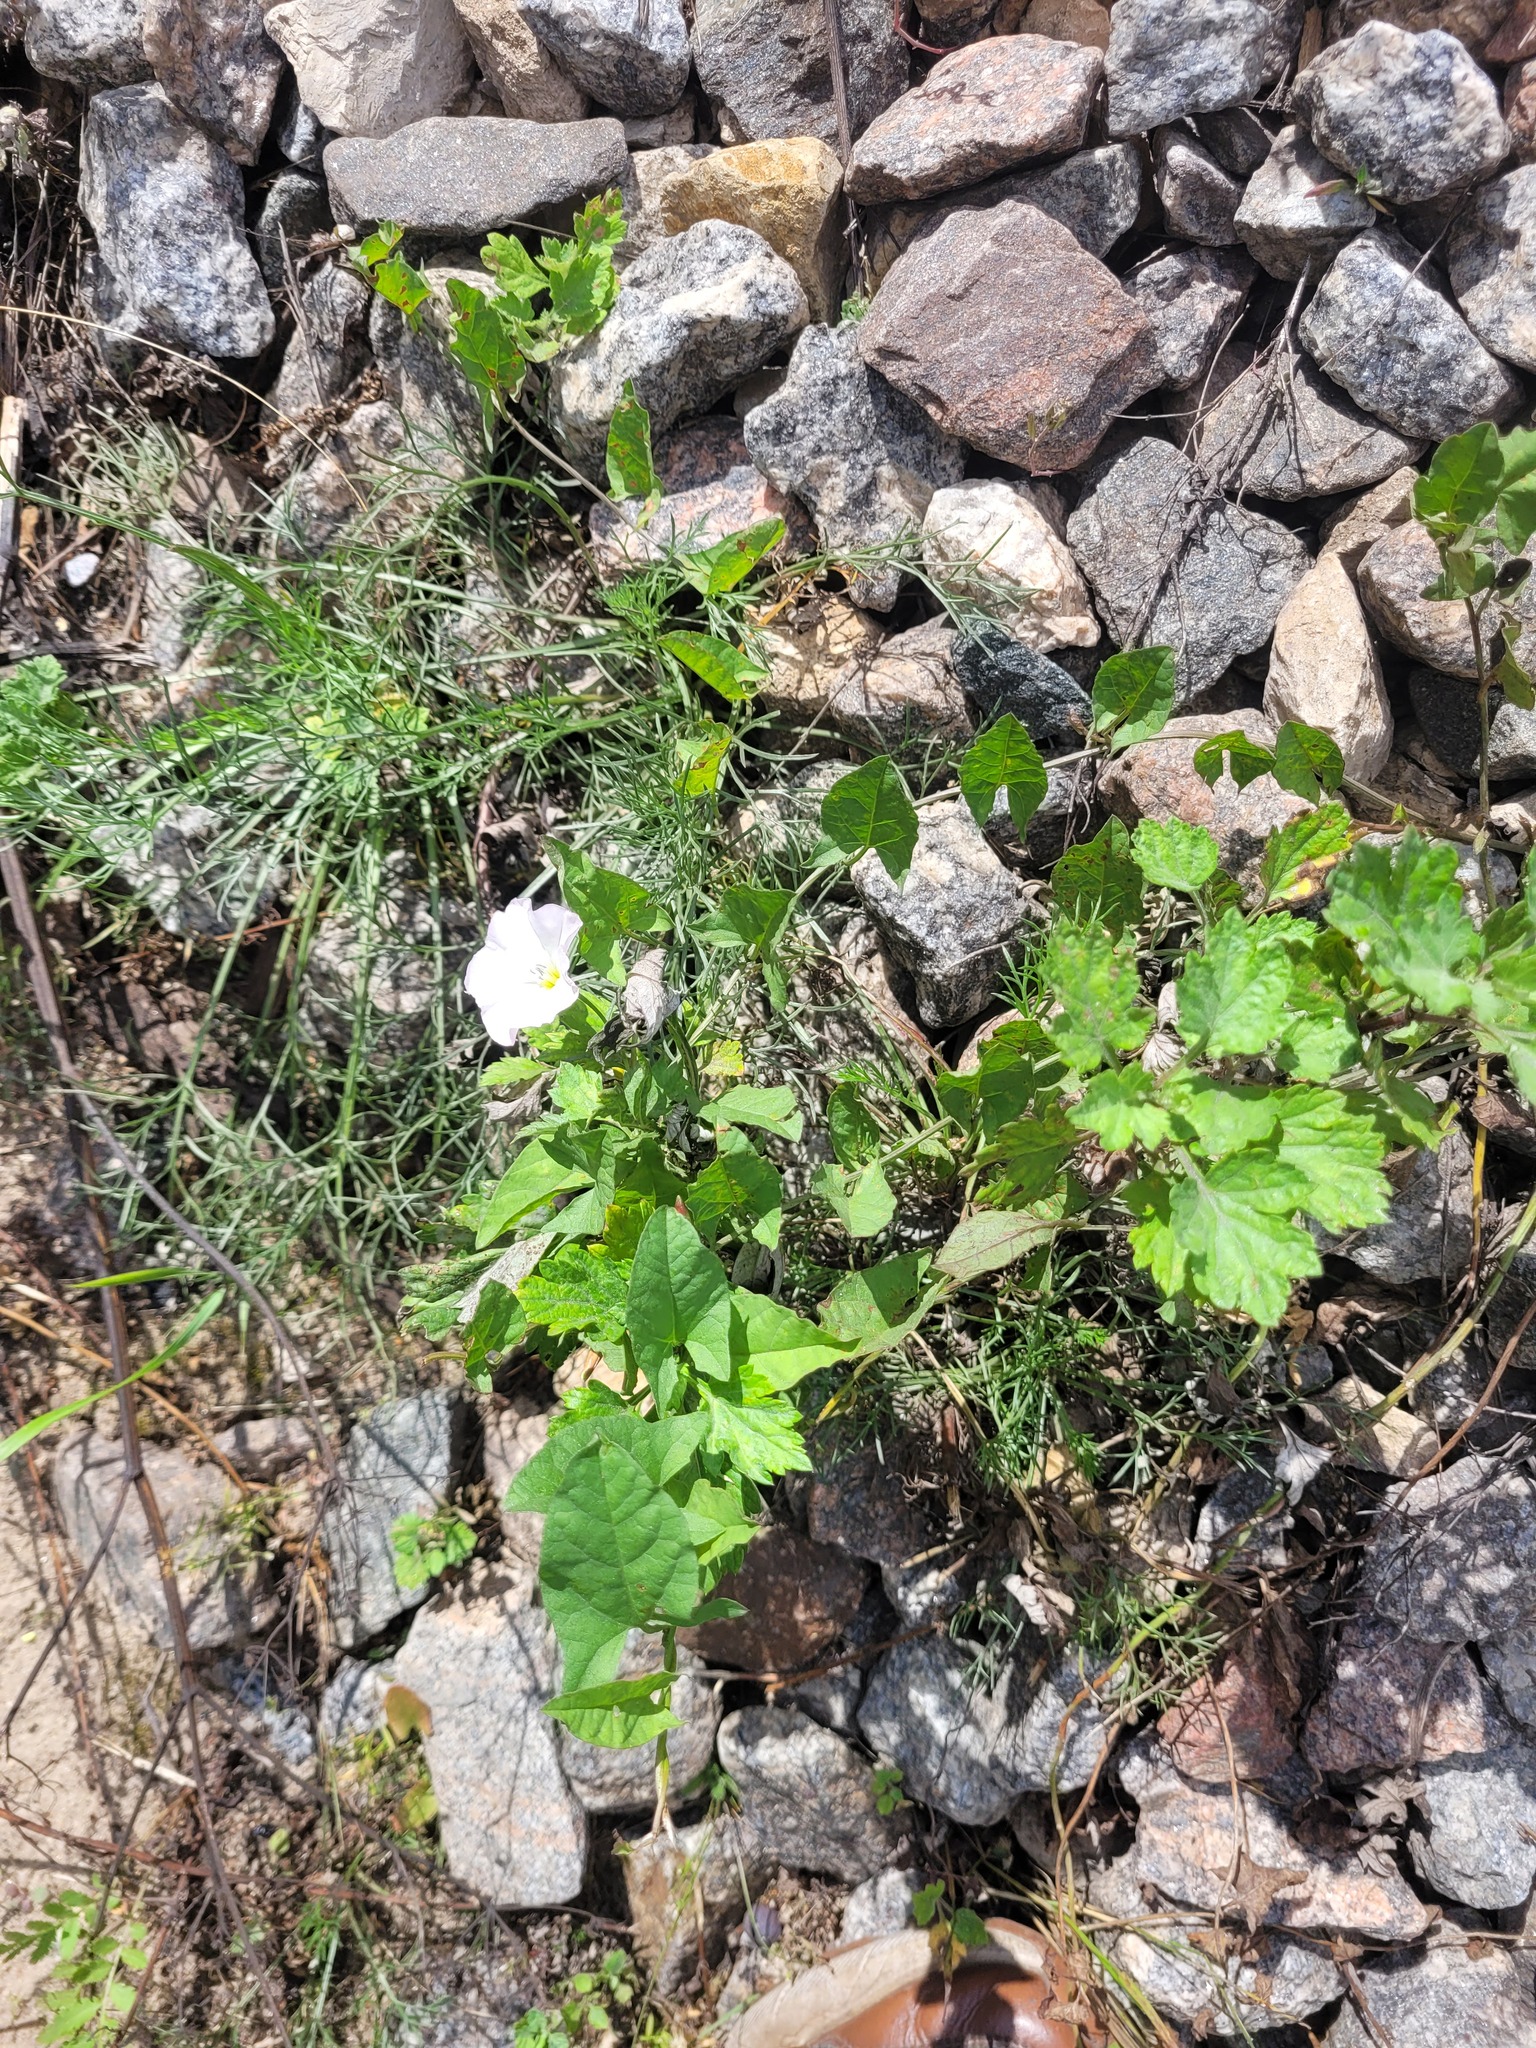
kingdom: Plantae
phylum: Tracheophyta
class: Magnoliopsida
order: Solanales
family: Convolvulaceae
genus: Convolvulus
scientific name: Convolvulus arvensis
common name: Field bindweed
